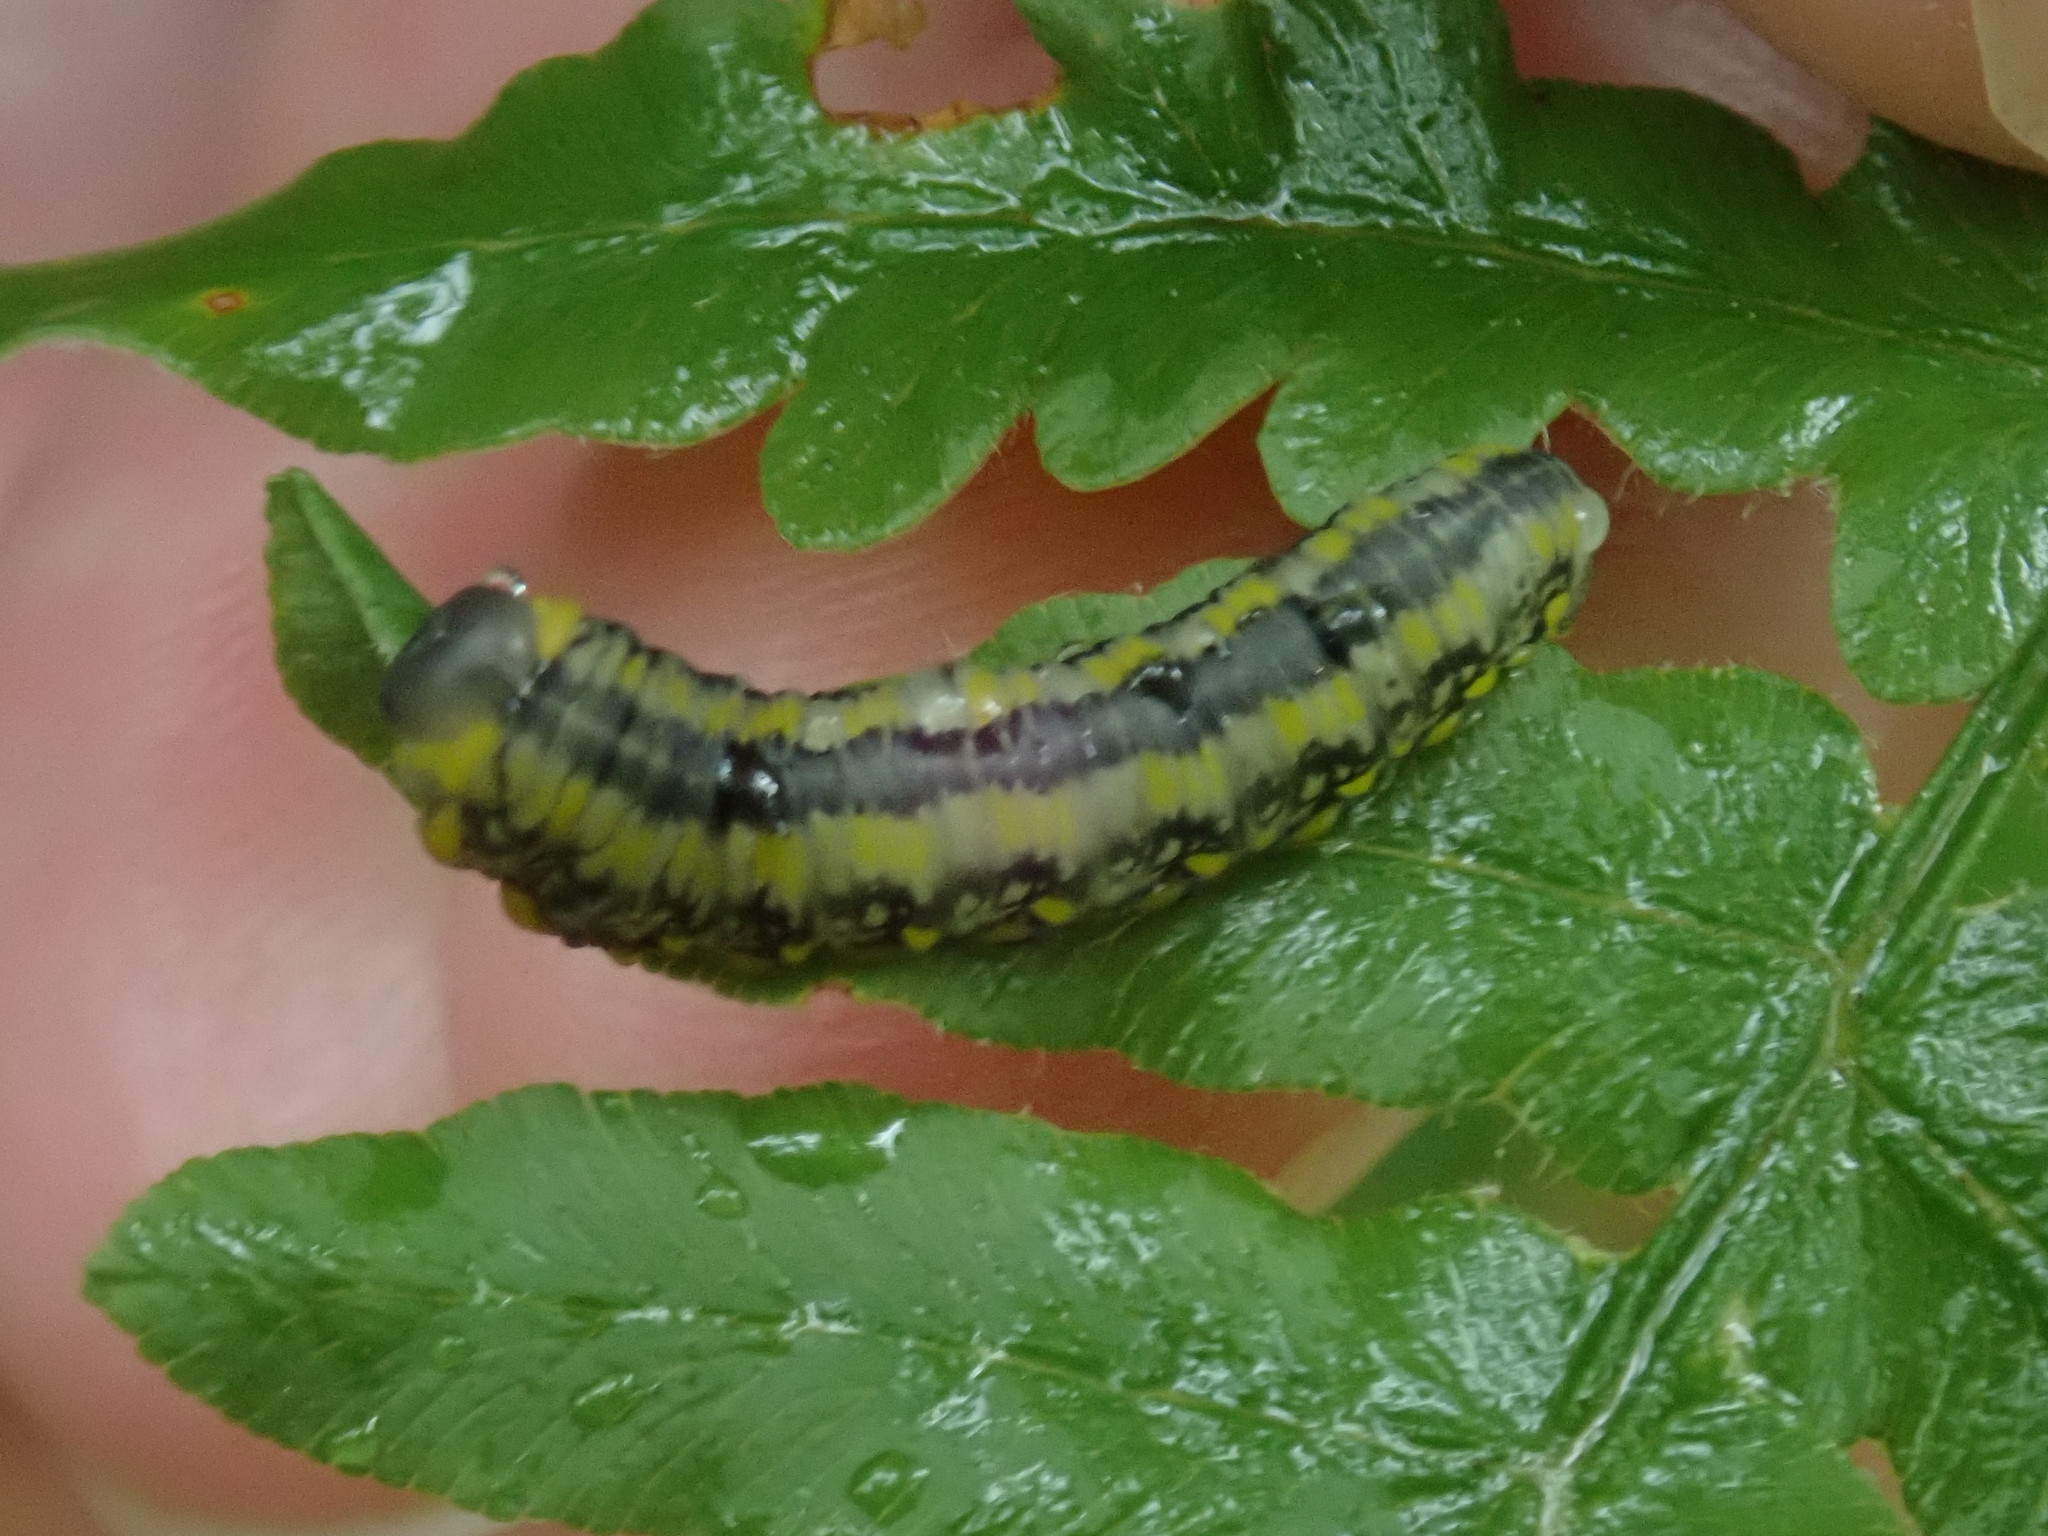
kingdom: Animalia
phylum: Arthropoda
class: Insecta
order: Hymenoptera
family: Diprionidae
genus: Diprion
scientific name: Diprion similis
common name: Pine sawfly
